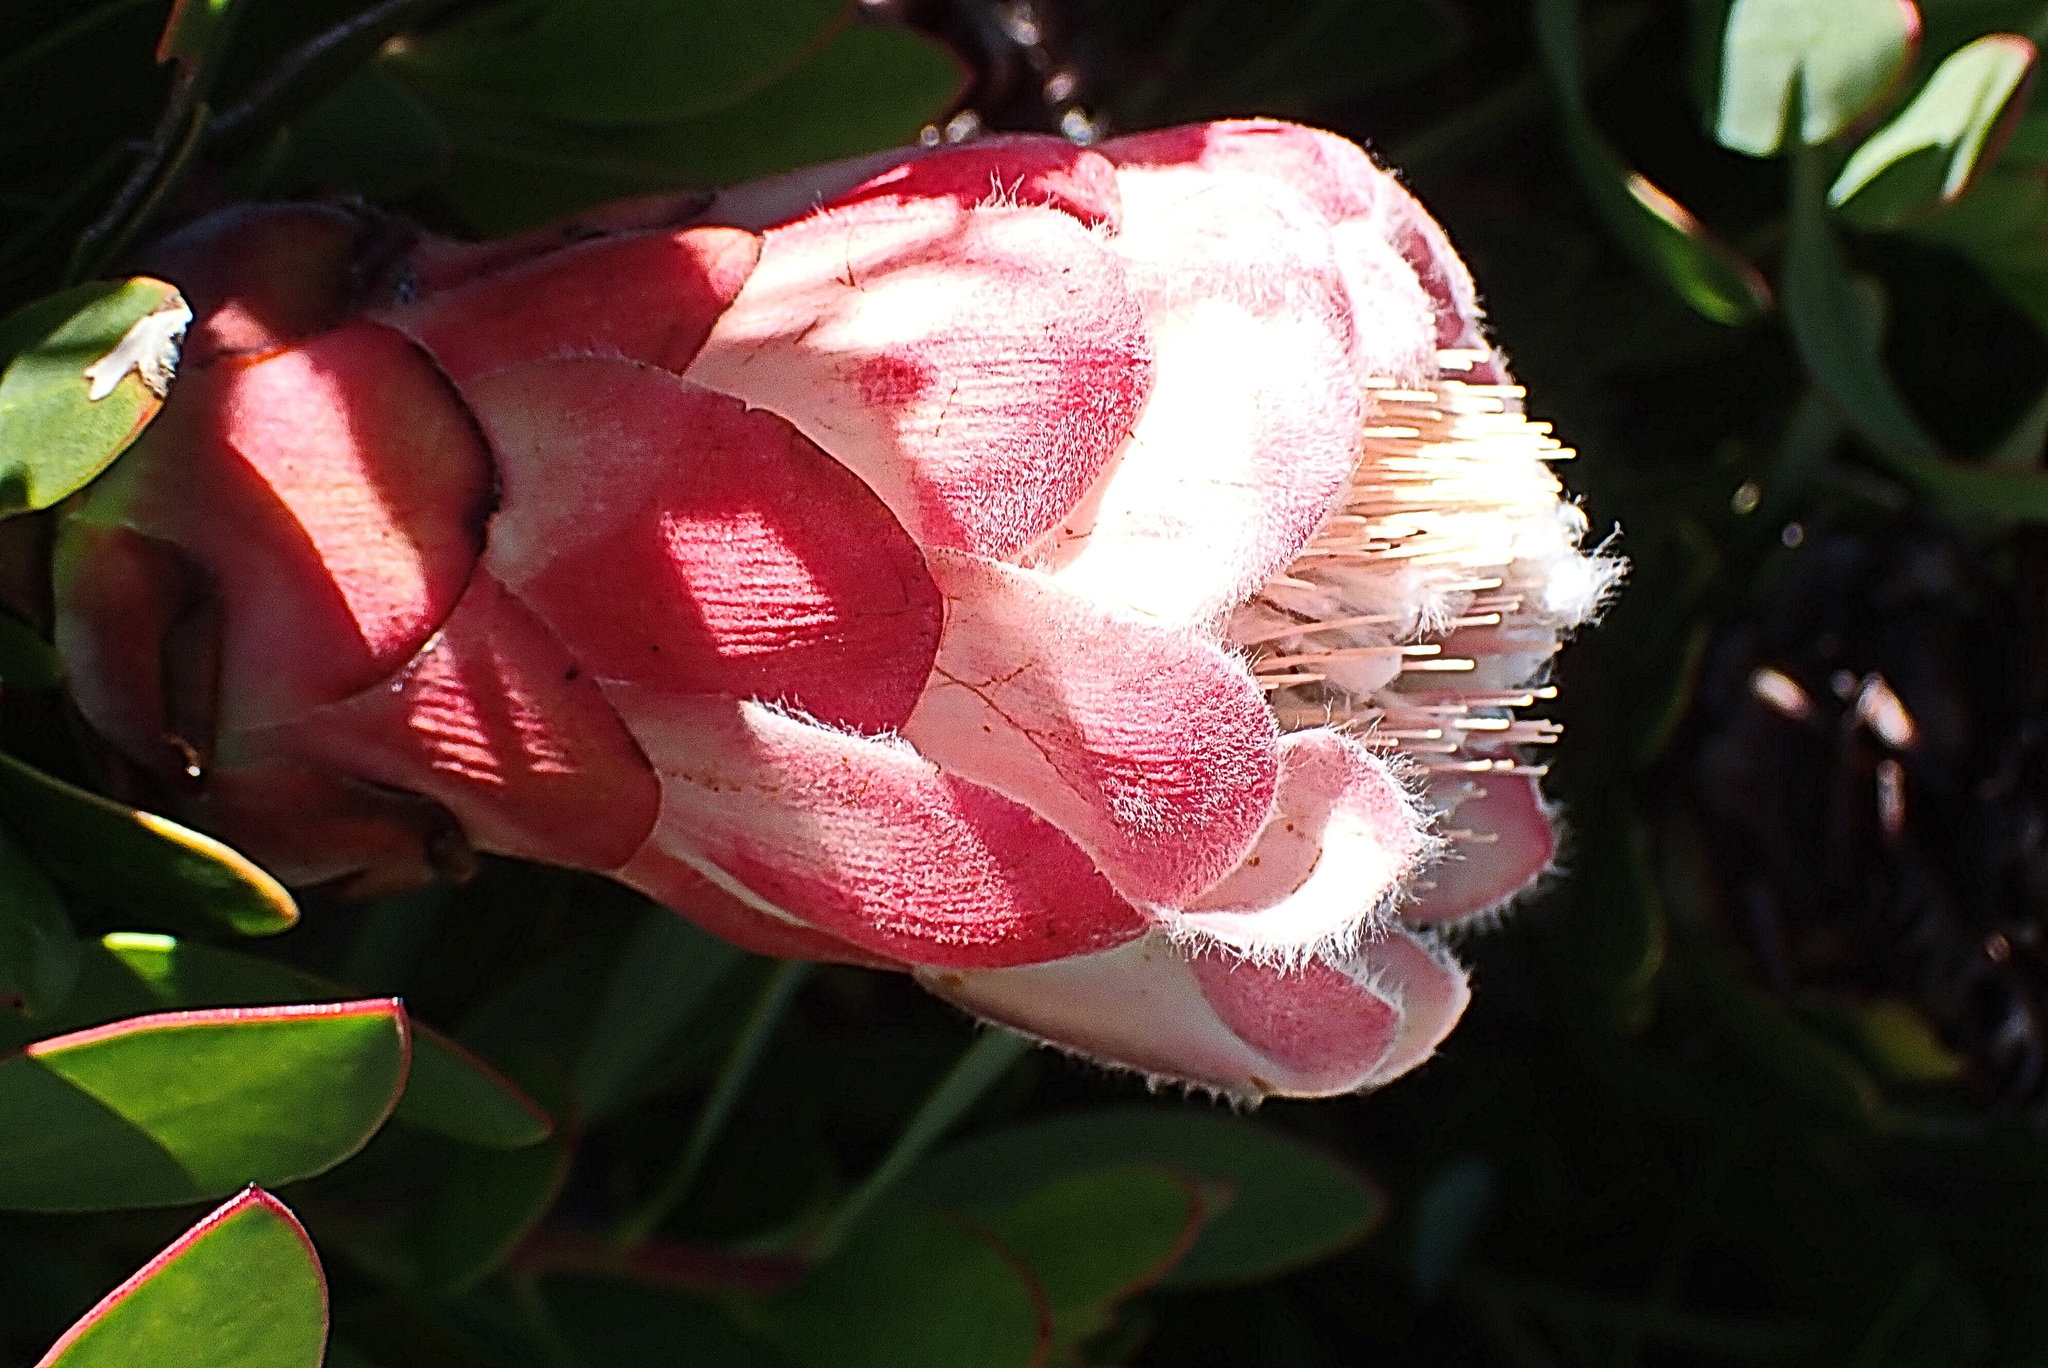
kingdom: Plantae
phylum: Tracheophyta
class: Magnoliopsida
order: Proteales
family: Proteaceae
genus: Protea
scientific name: Protea venusta
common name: Cascade sugarbush
